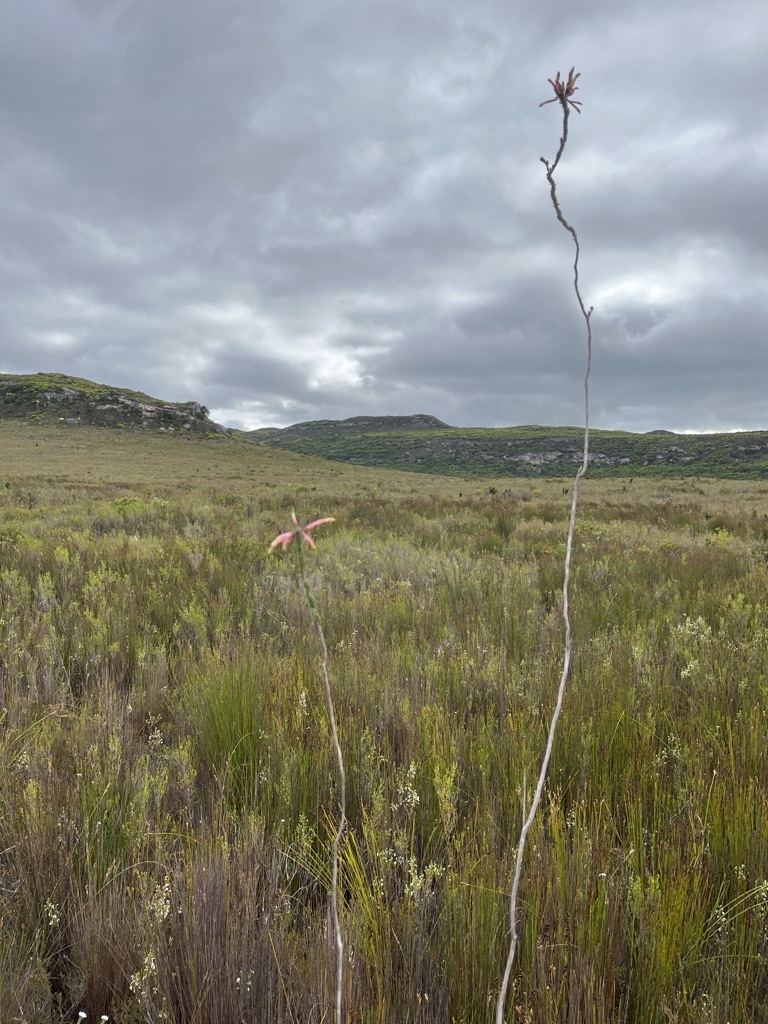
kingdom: Plantae
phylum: Tracheophyta
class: Magnoliopsida
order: Ericales
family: Ericaceae
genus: Erica
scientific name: Erica fascicularis
